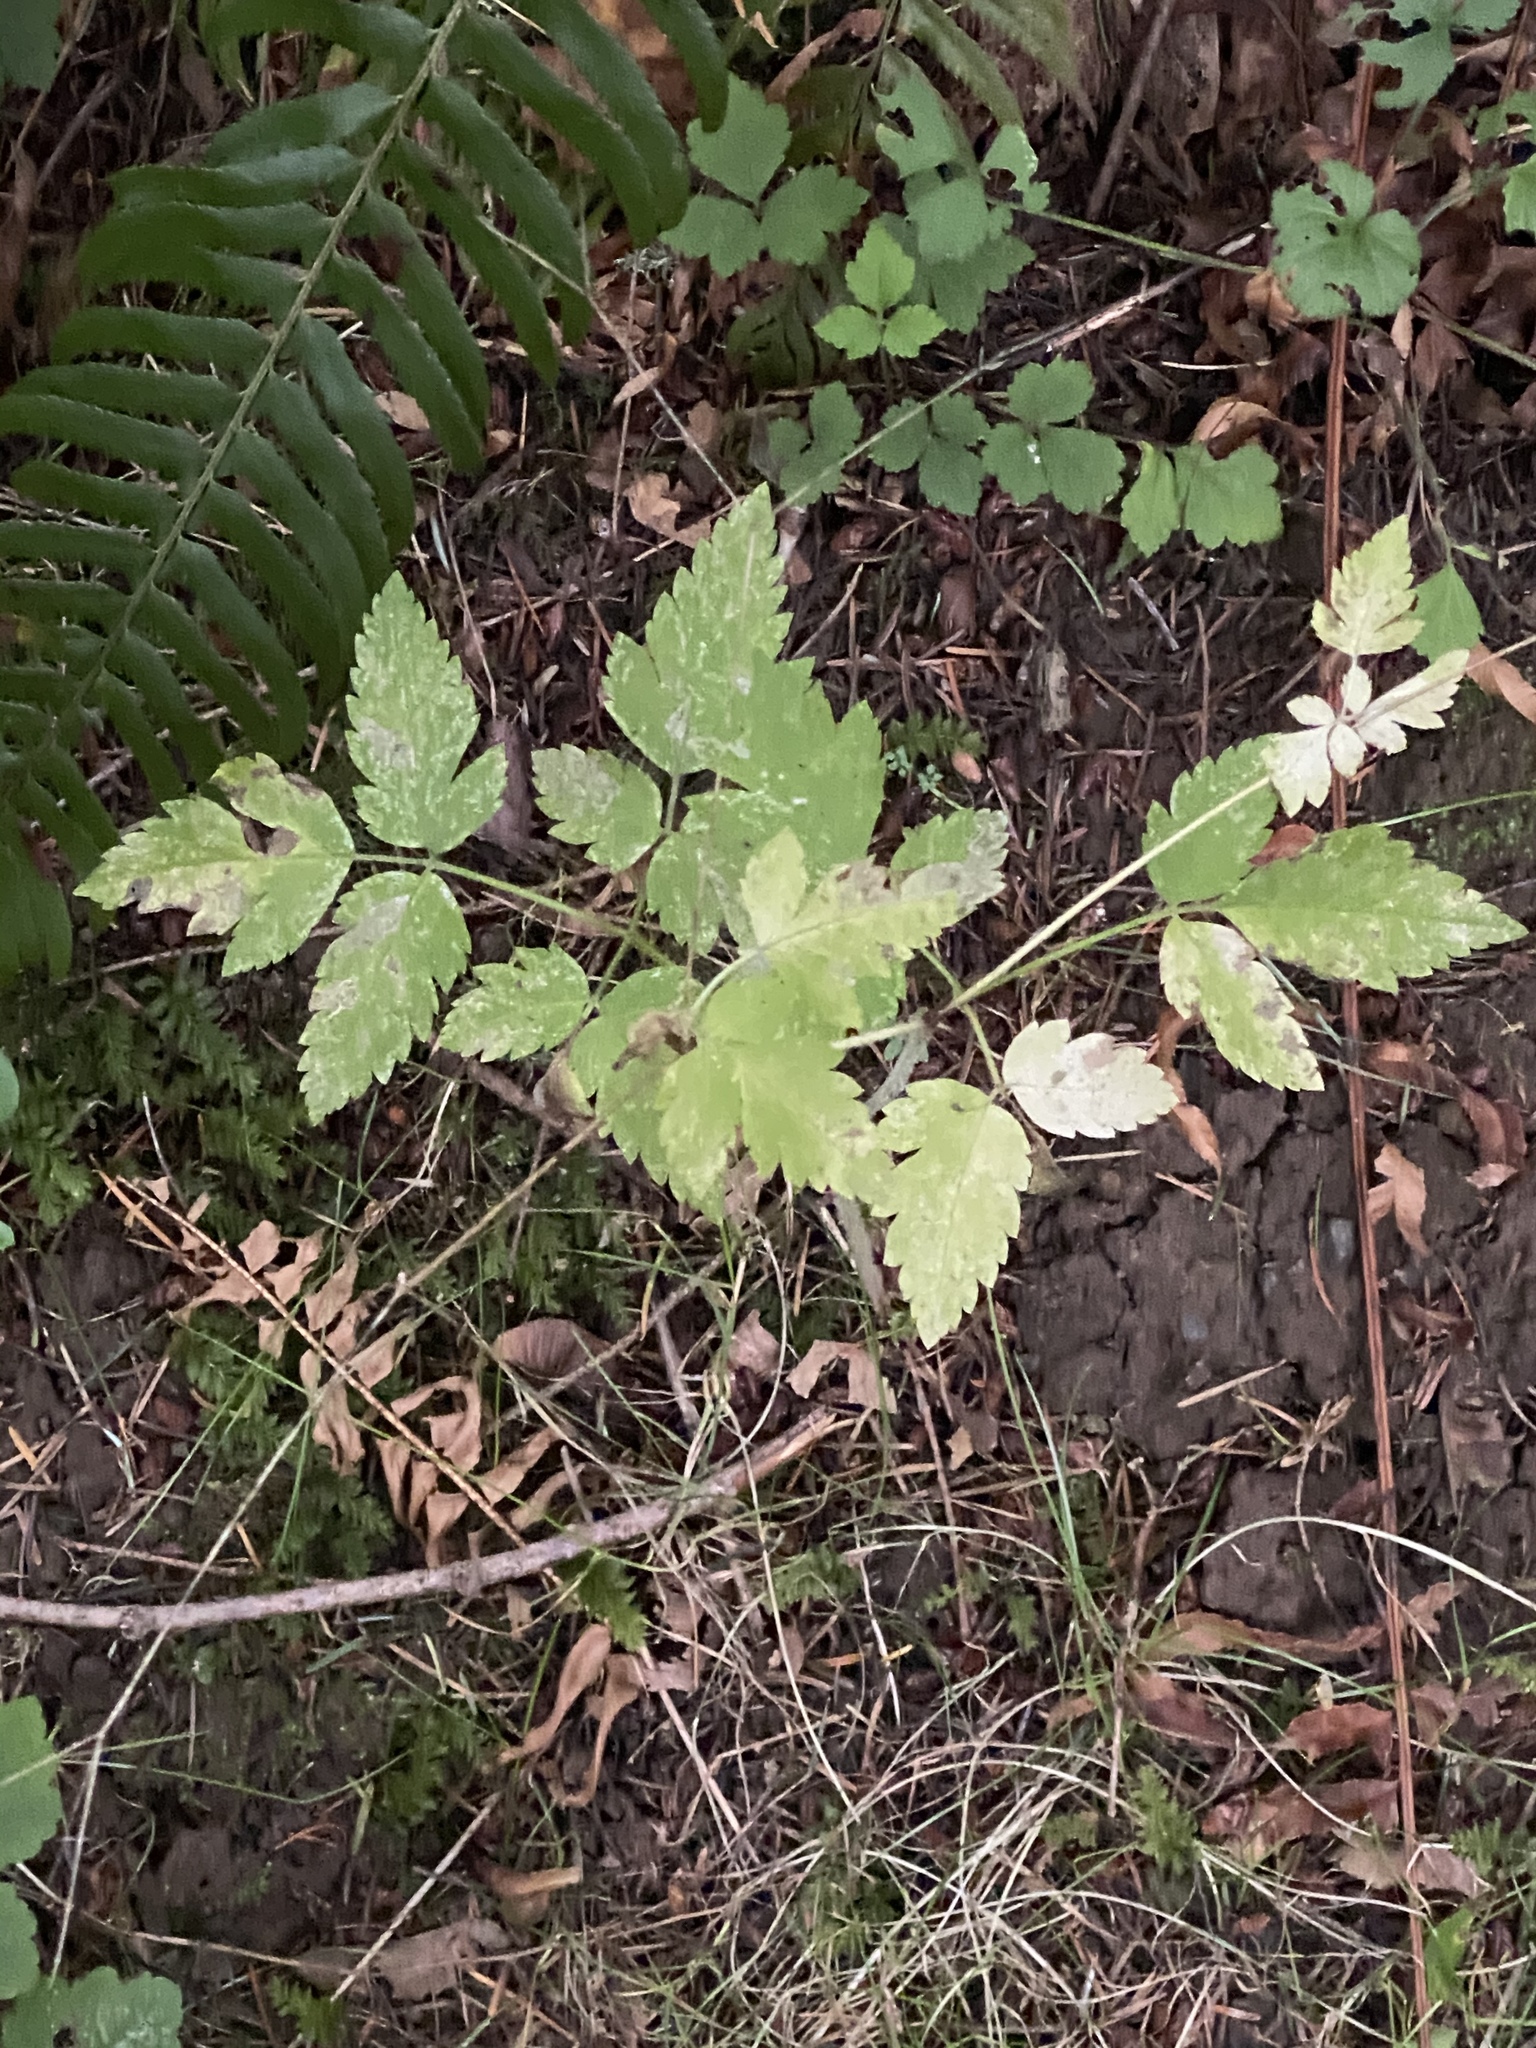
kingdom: Plantae
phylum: Tracheophyta
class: Magnoliopsida
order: Apiales
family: Apiaceae
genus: Osmorhiza
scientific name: Osmorhiza berteroi
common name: Mountain sweet cicely
